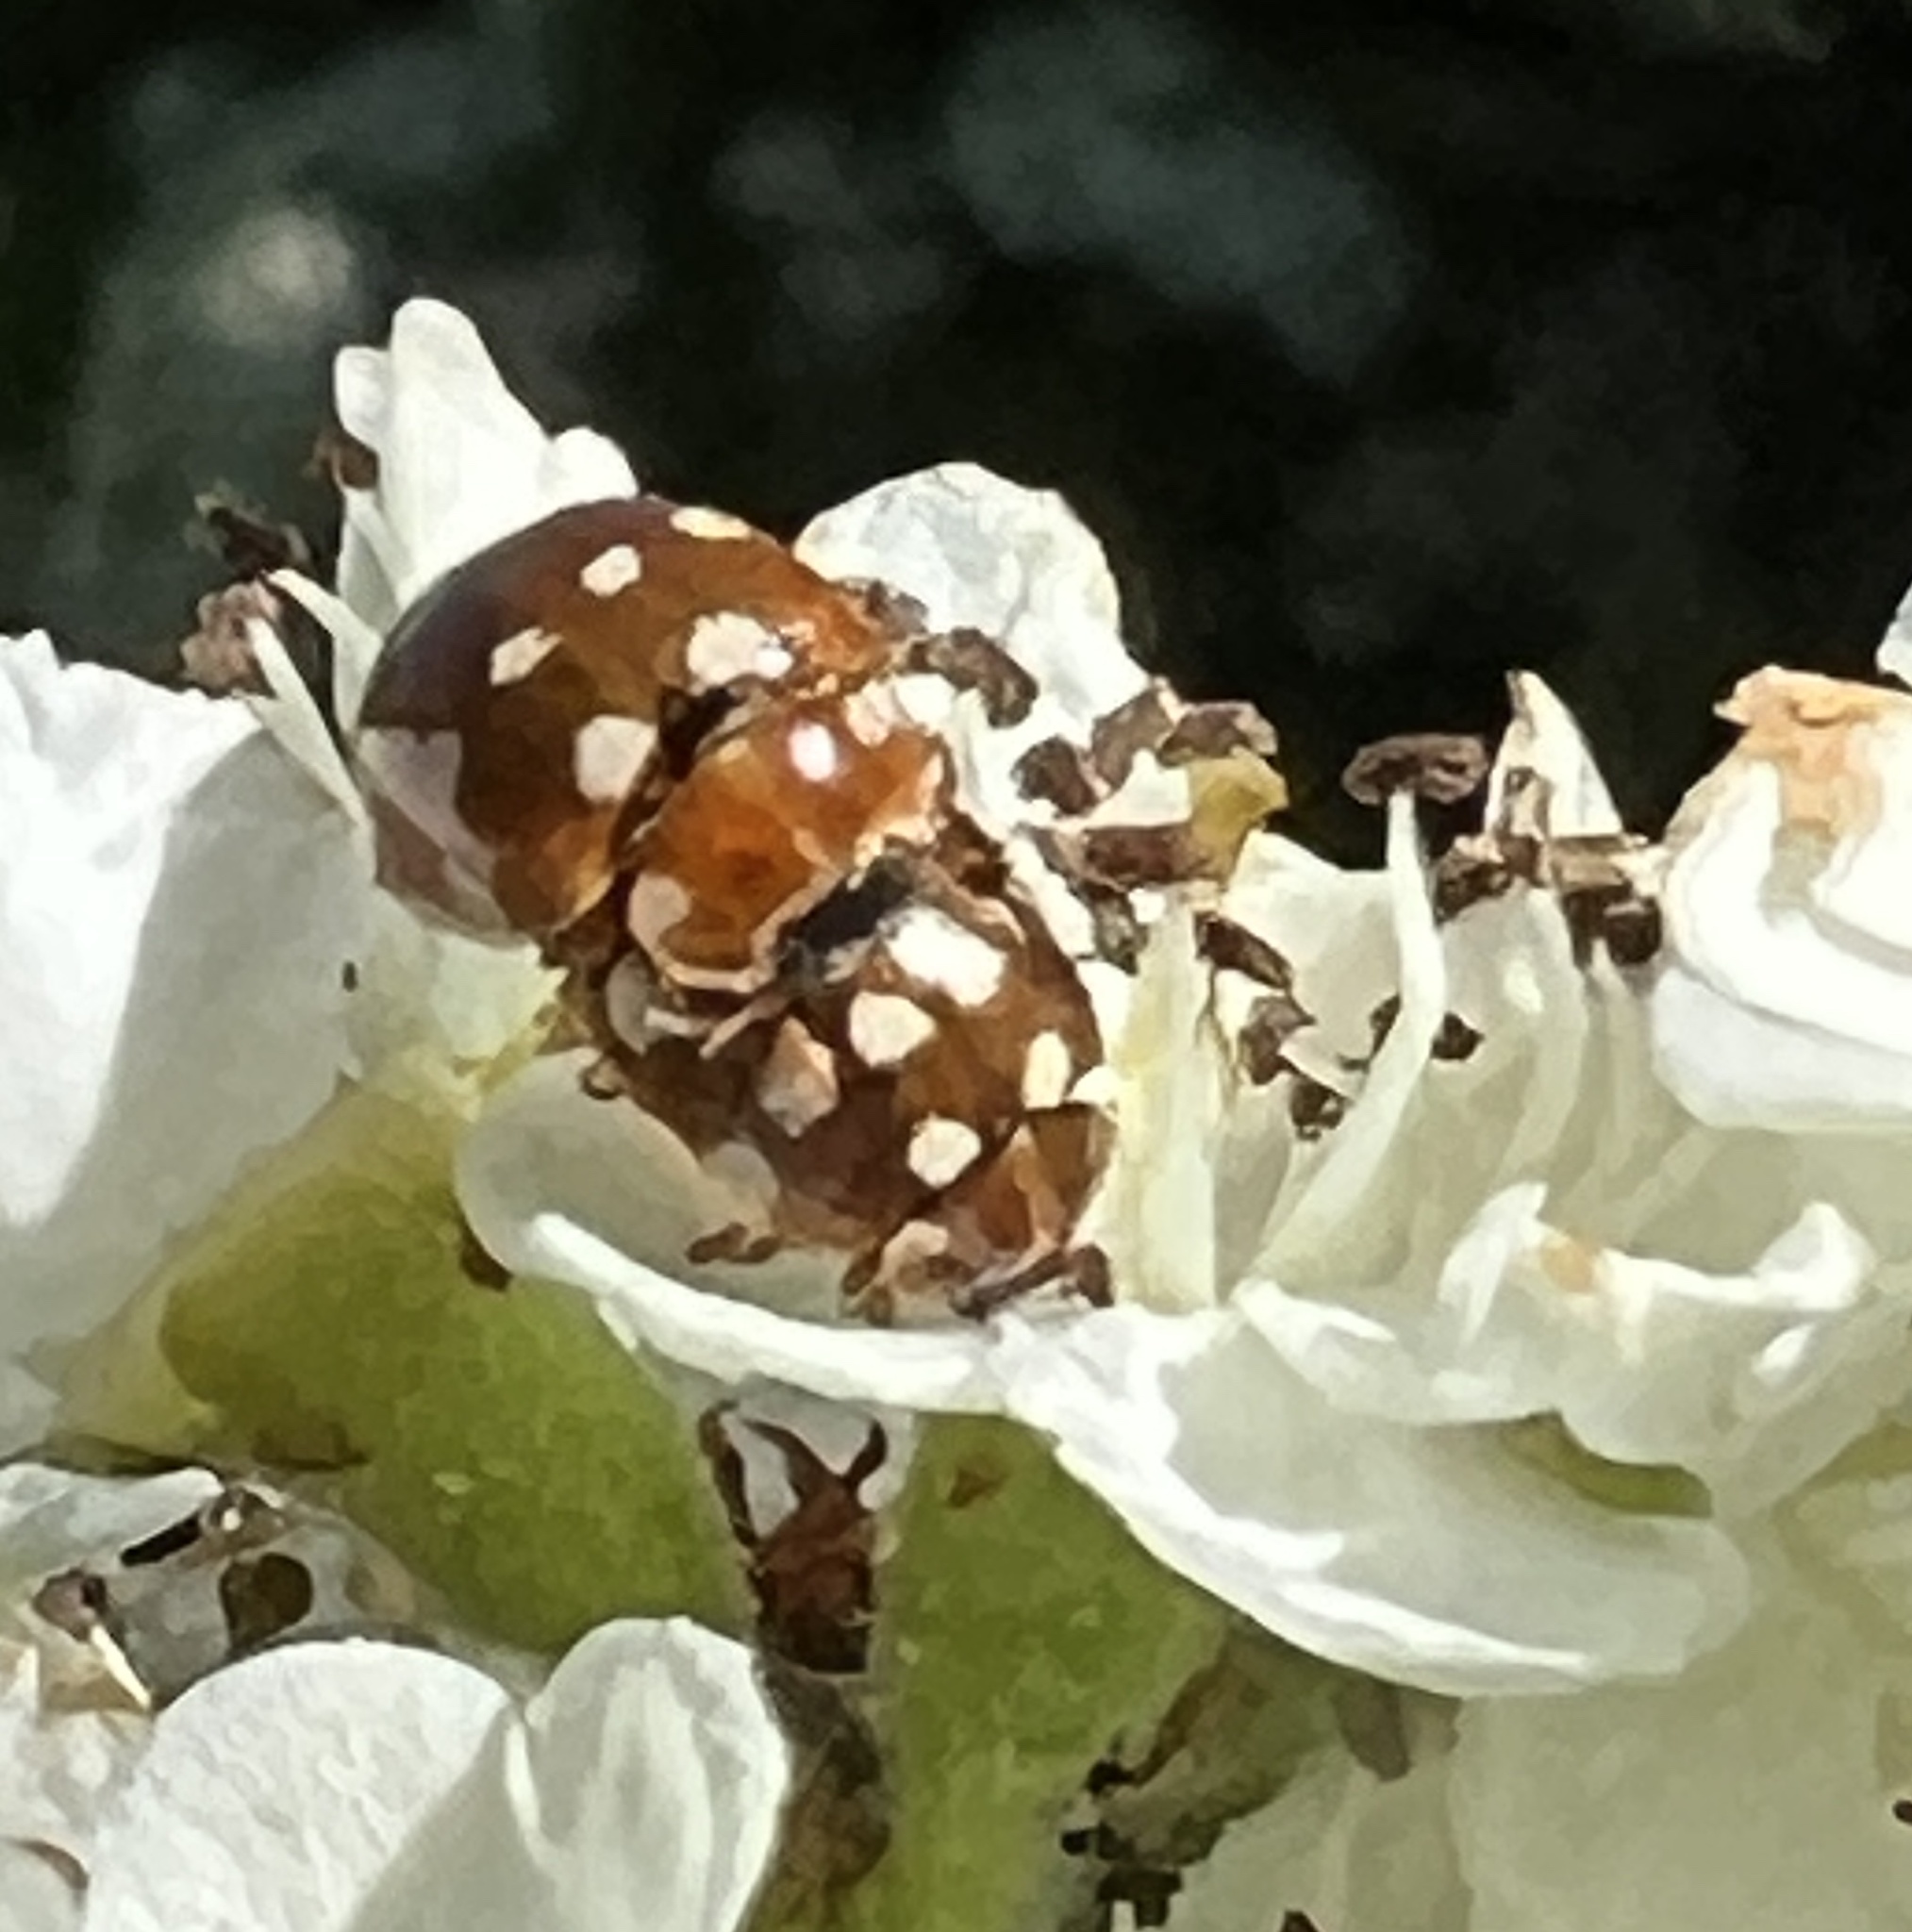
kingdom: Animalia
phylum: Arthropoda
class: Insecta
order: Coleoptera
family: Coccinellidae
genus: Calvia
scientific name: Calvia quatuordecimguttata
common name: Cream-spot ladybird
